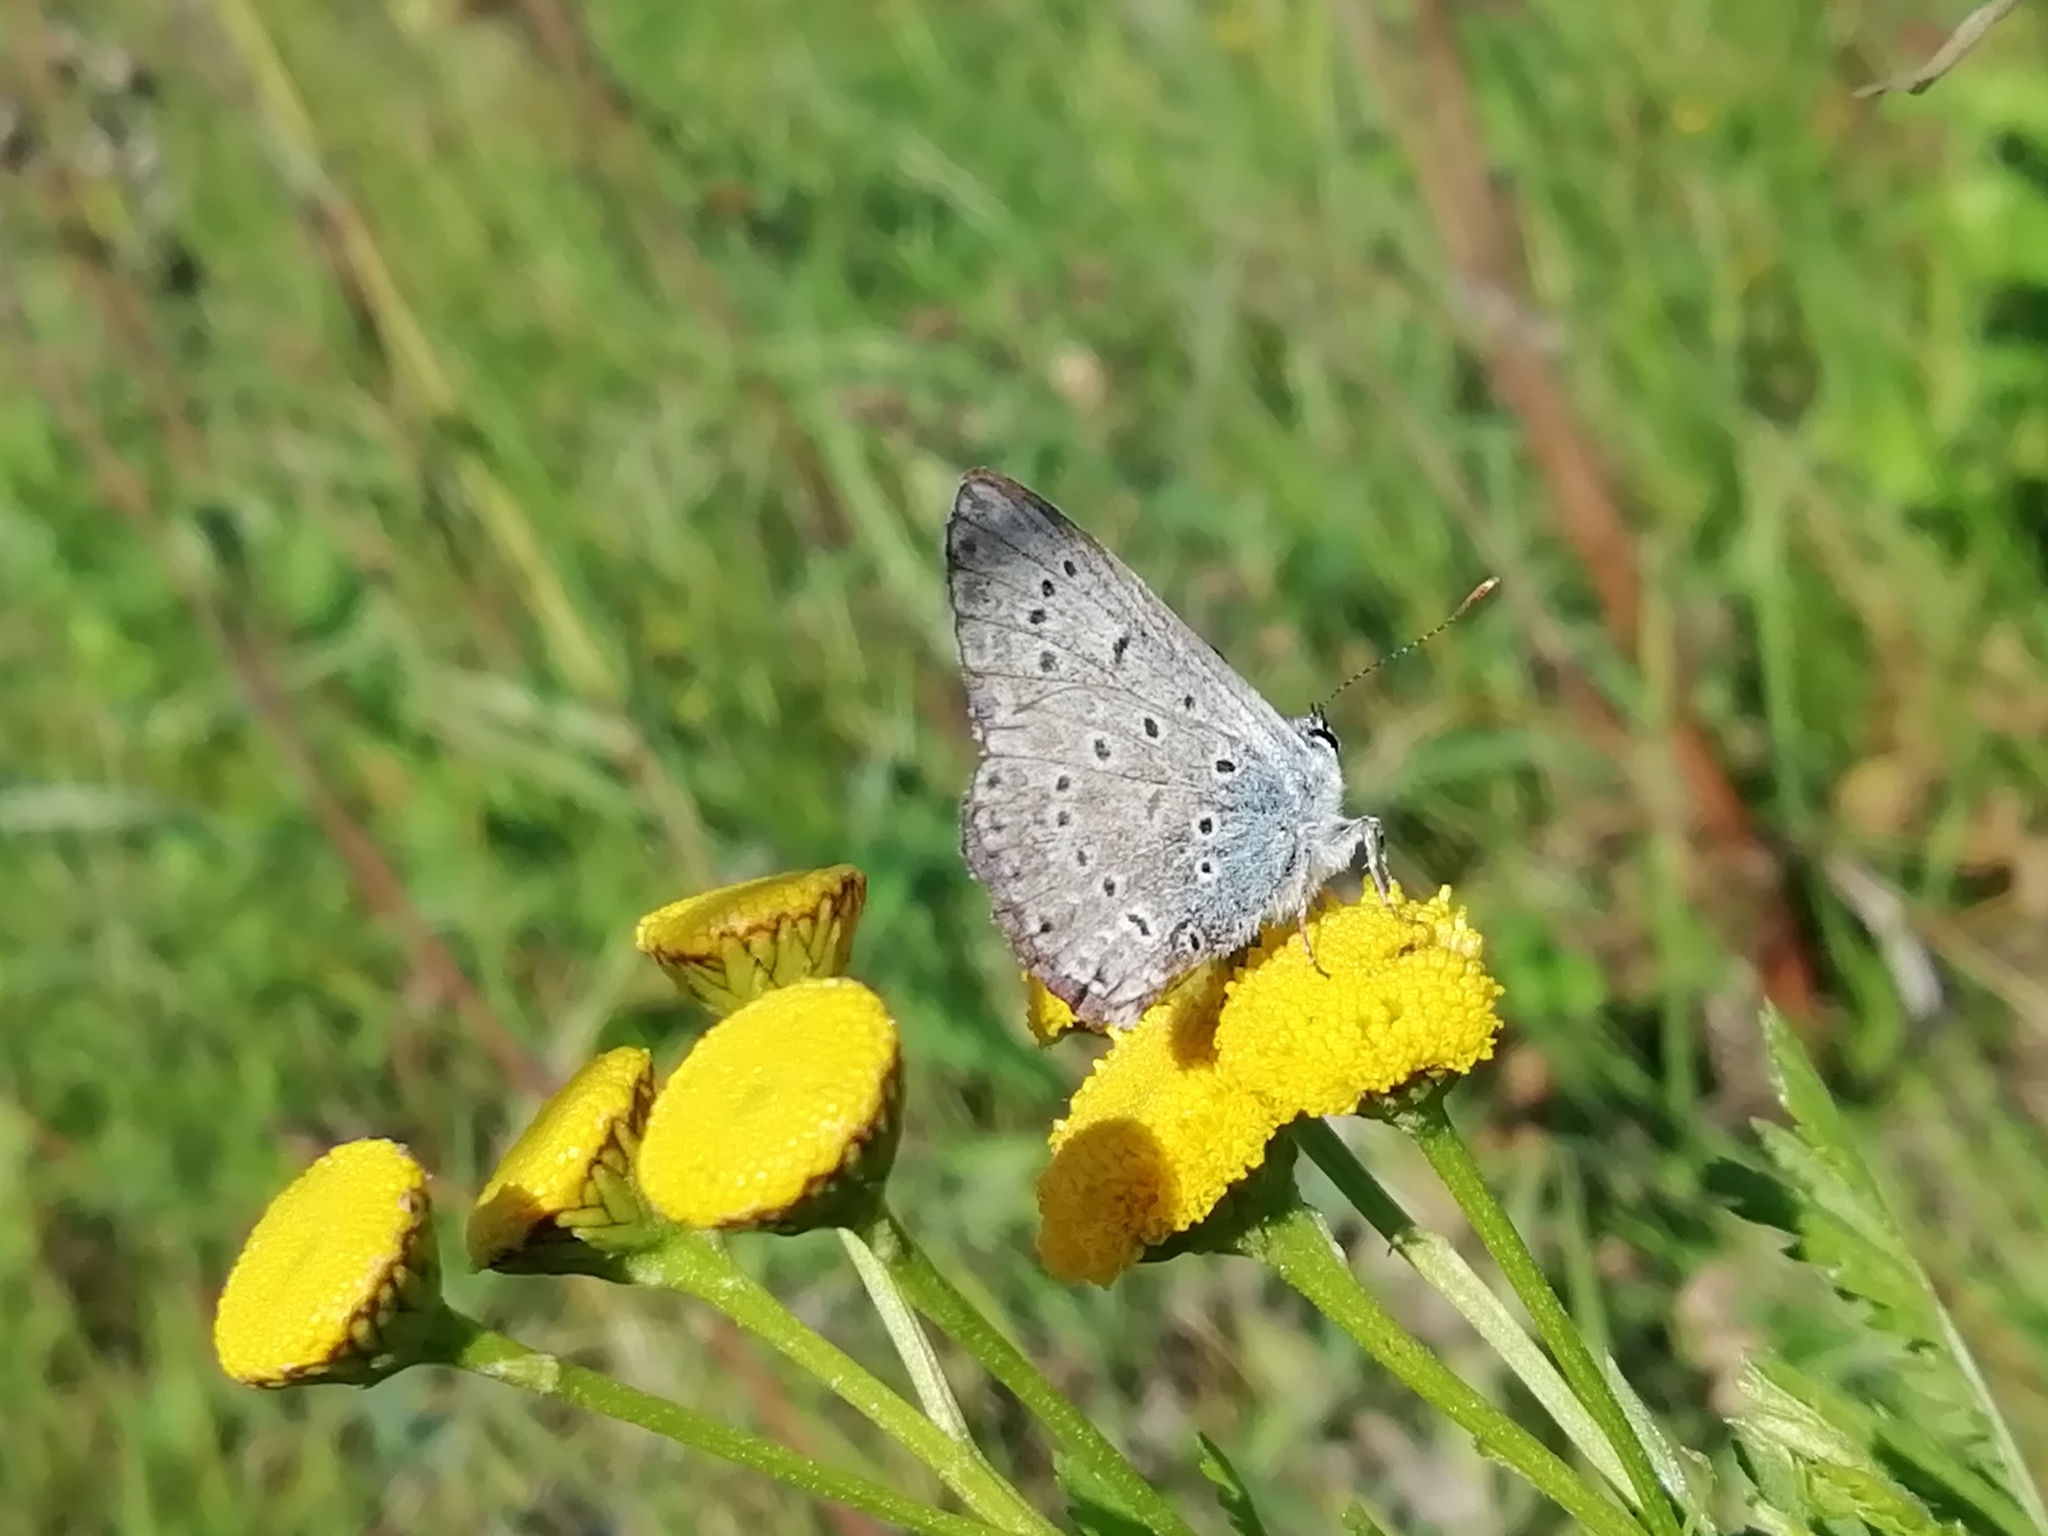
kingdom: Animalia
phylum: Arthropoda
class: Insecta
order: Lepidoptera
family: Lycaenidae
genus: Polyommatus
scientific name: Polyommatus icarus
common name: Common blue
